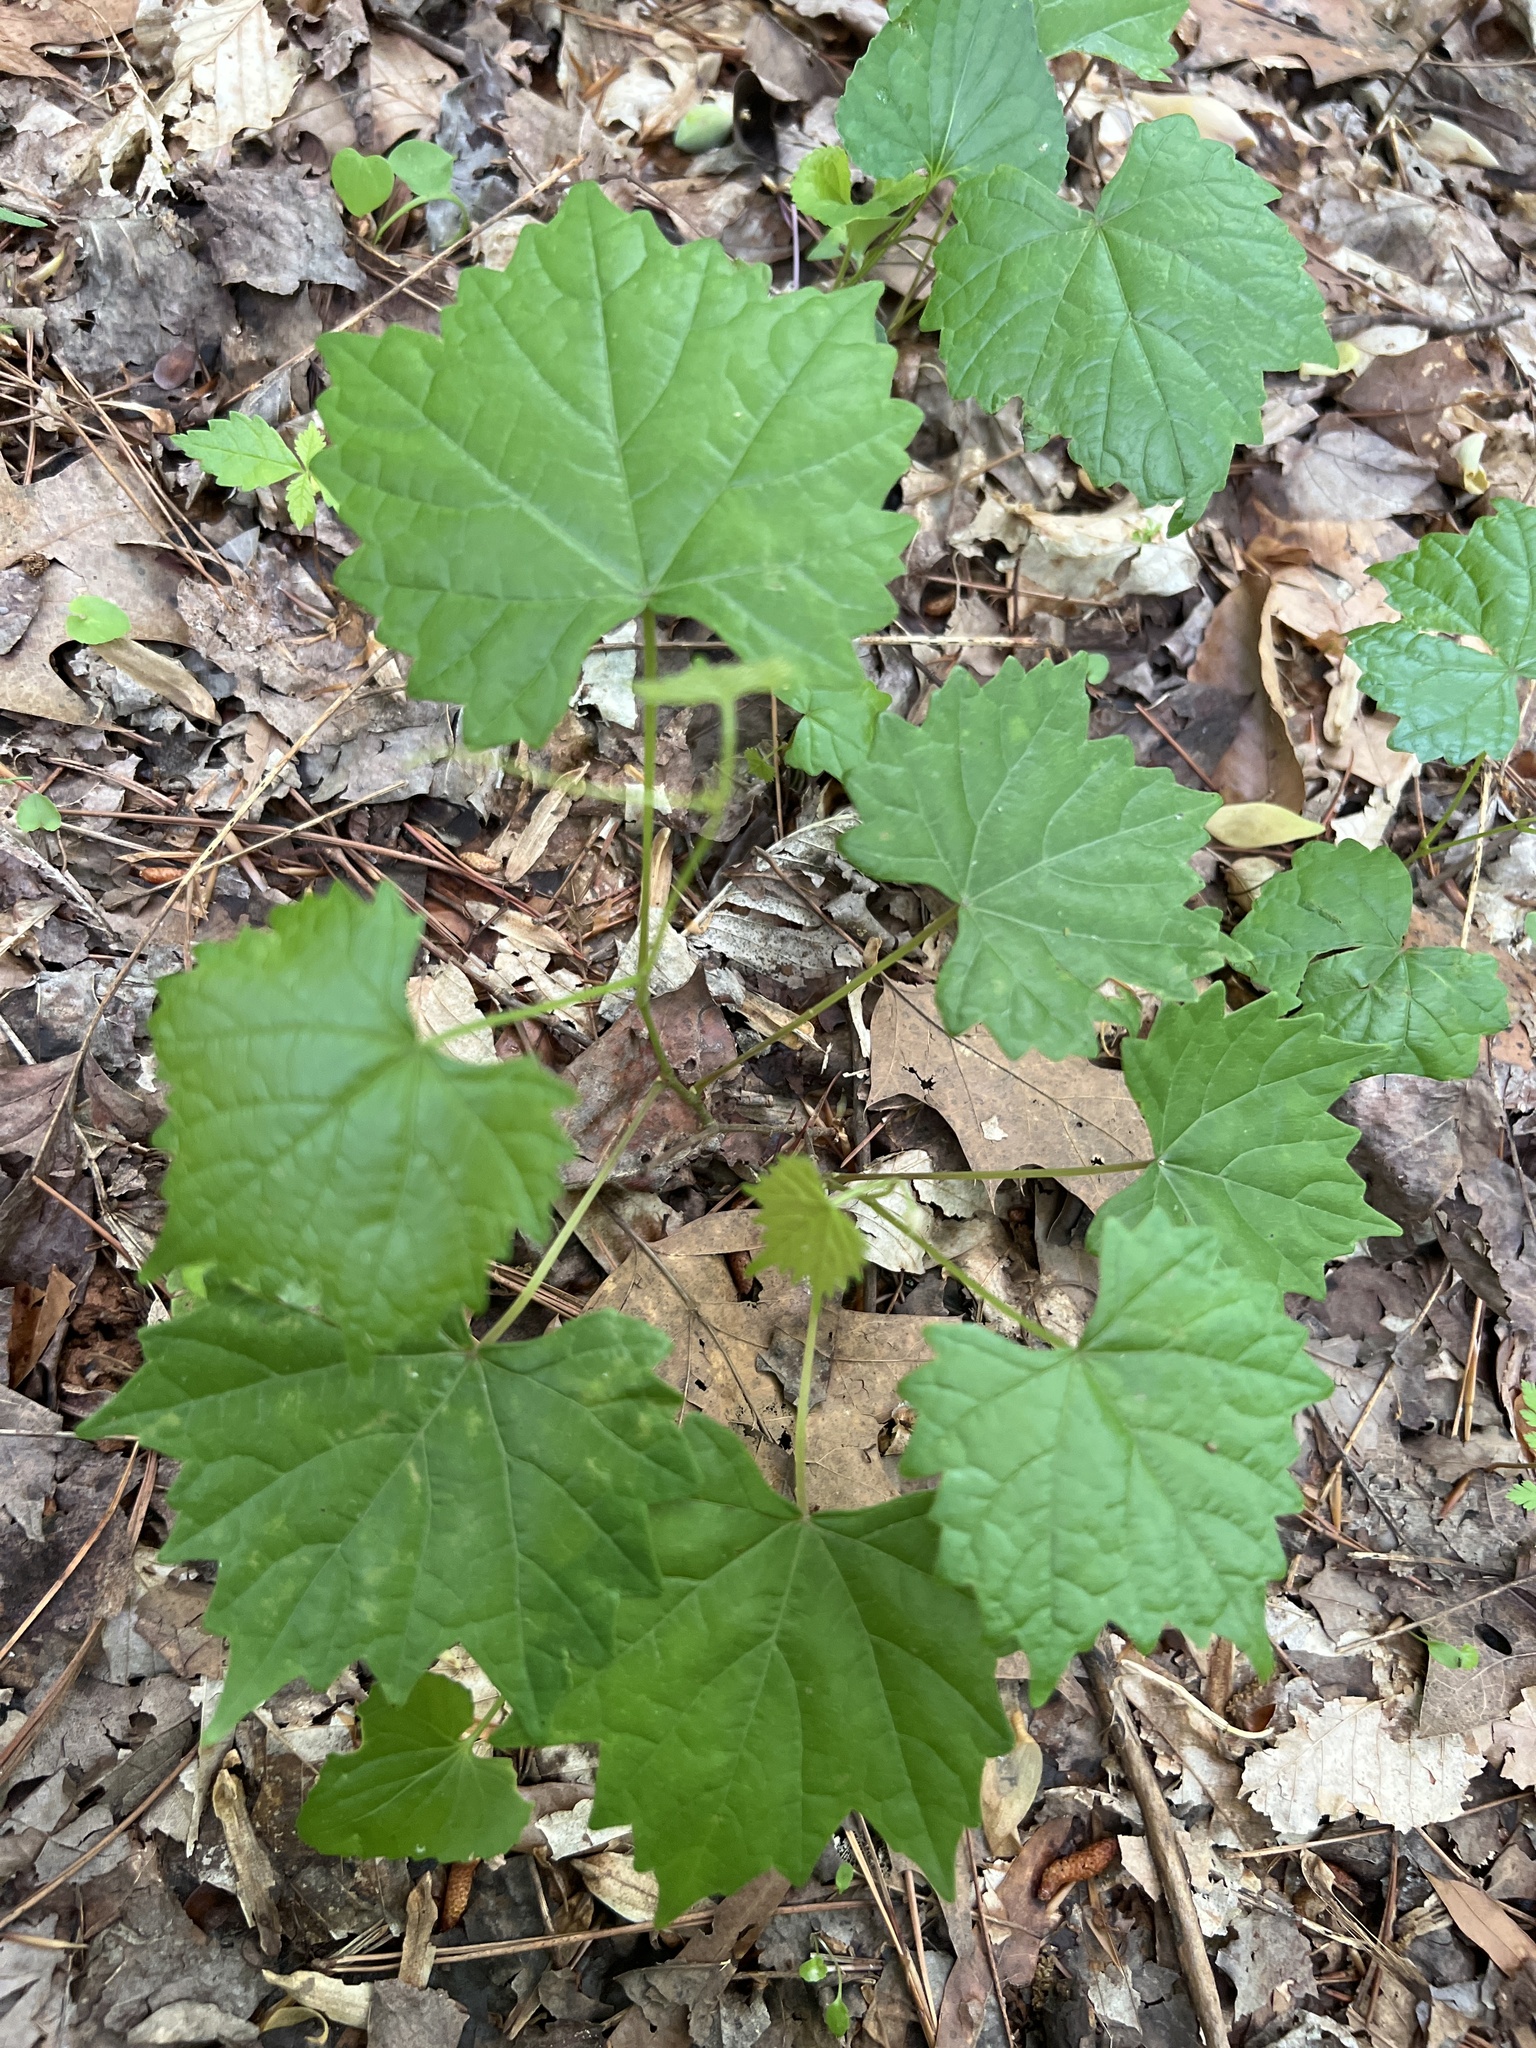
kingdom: Plantae
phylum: Tracheophyta
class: Magnoliopsida
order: Vitales
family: Vitaceae
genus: Vitis
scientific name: Vitis rotundifolia
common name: Muscadine grape
